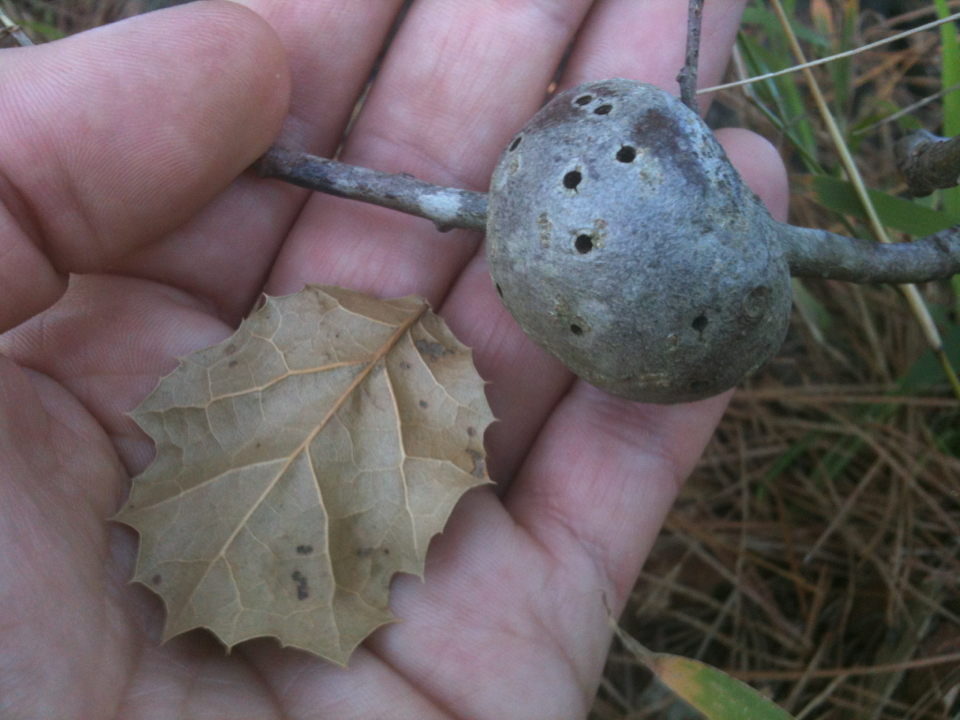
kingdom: Animalia
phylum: Arthropoda
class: Insecta
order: Hymenoptera
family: Cynipidae
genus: Andricus
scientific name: Andricus quercuscalifornicus
